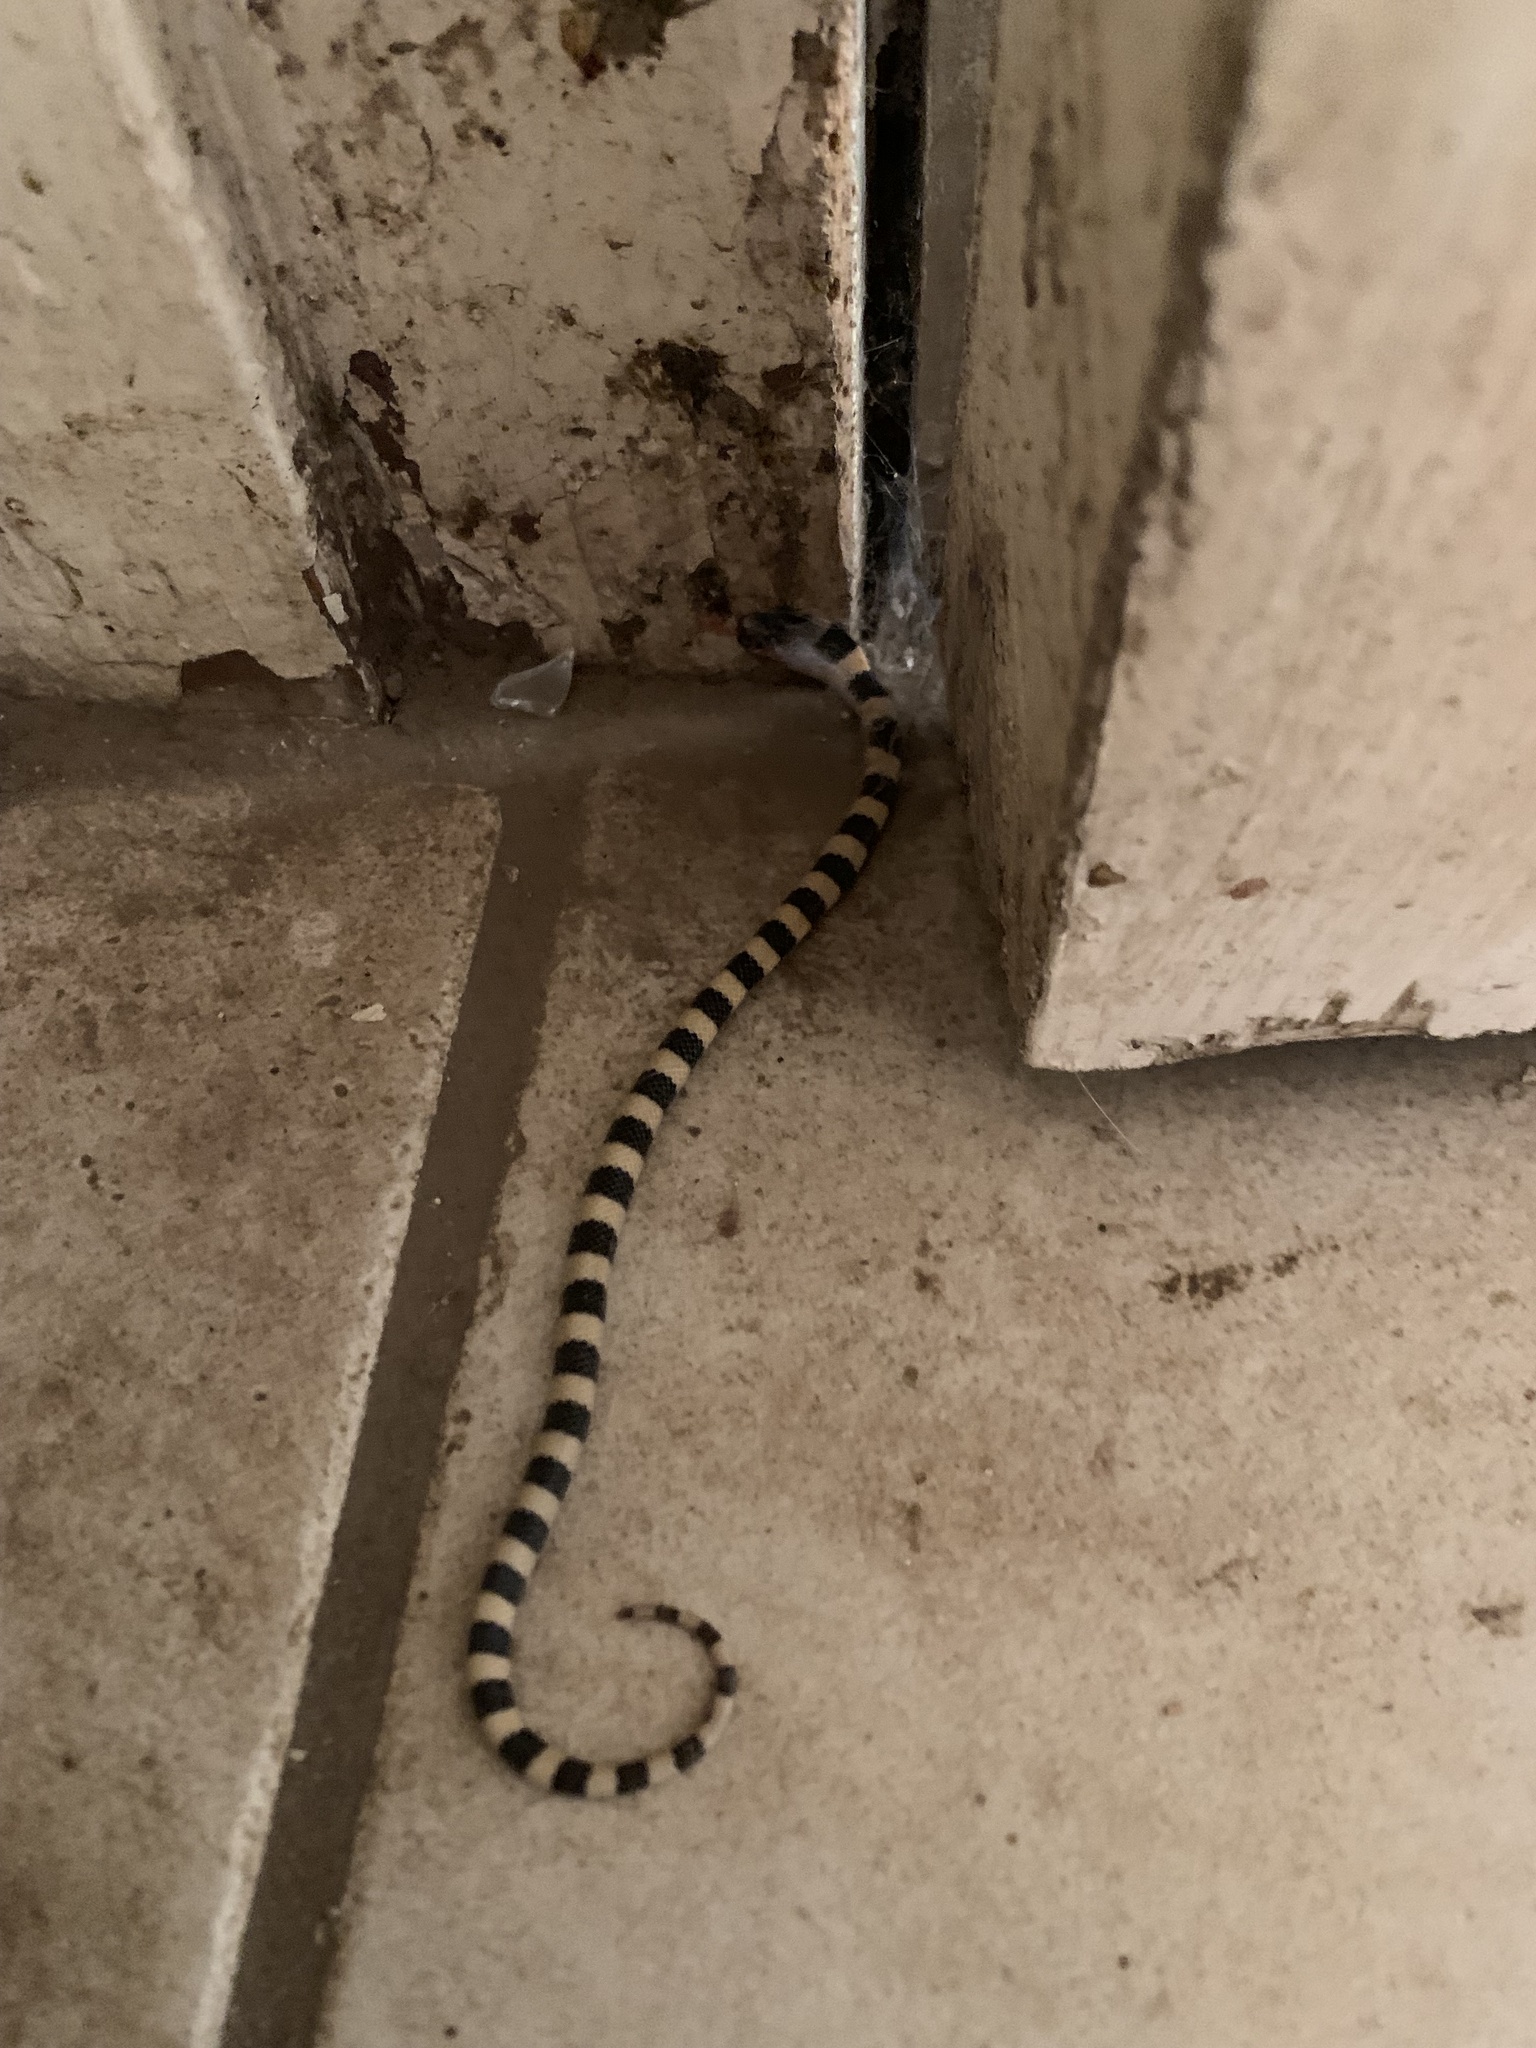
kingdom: Animalia
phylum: Chordata
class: Squamata
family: Colubridae
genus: Sonora
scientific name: Sonora semiannulata
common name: Ground snake
